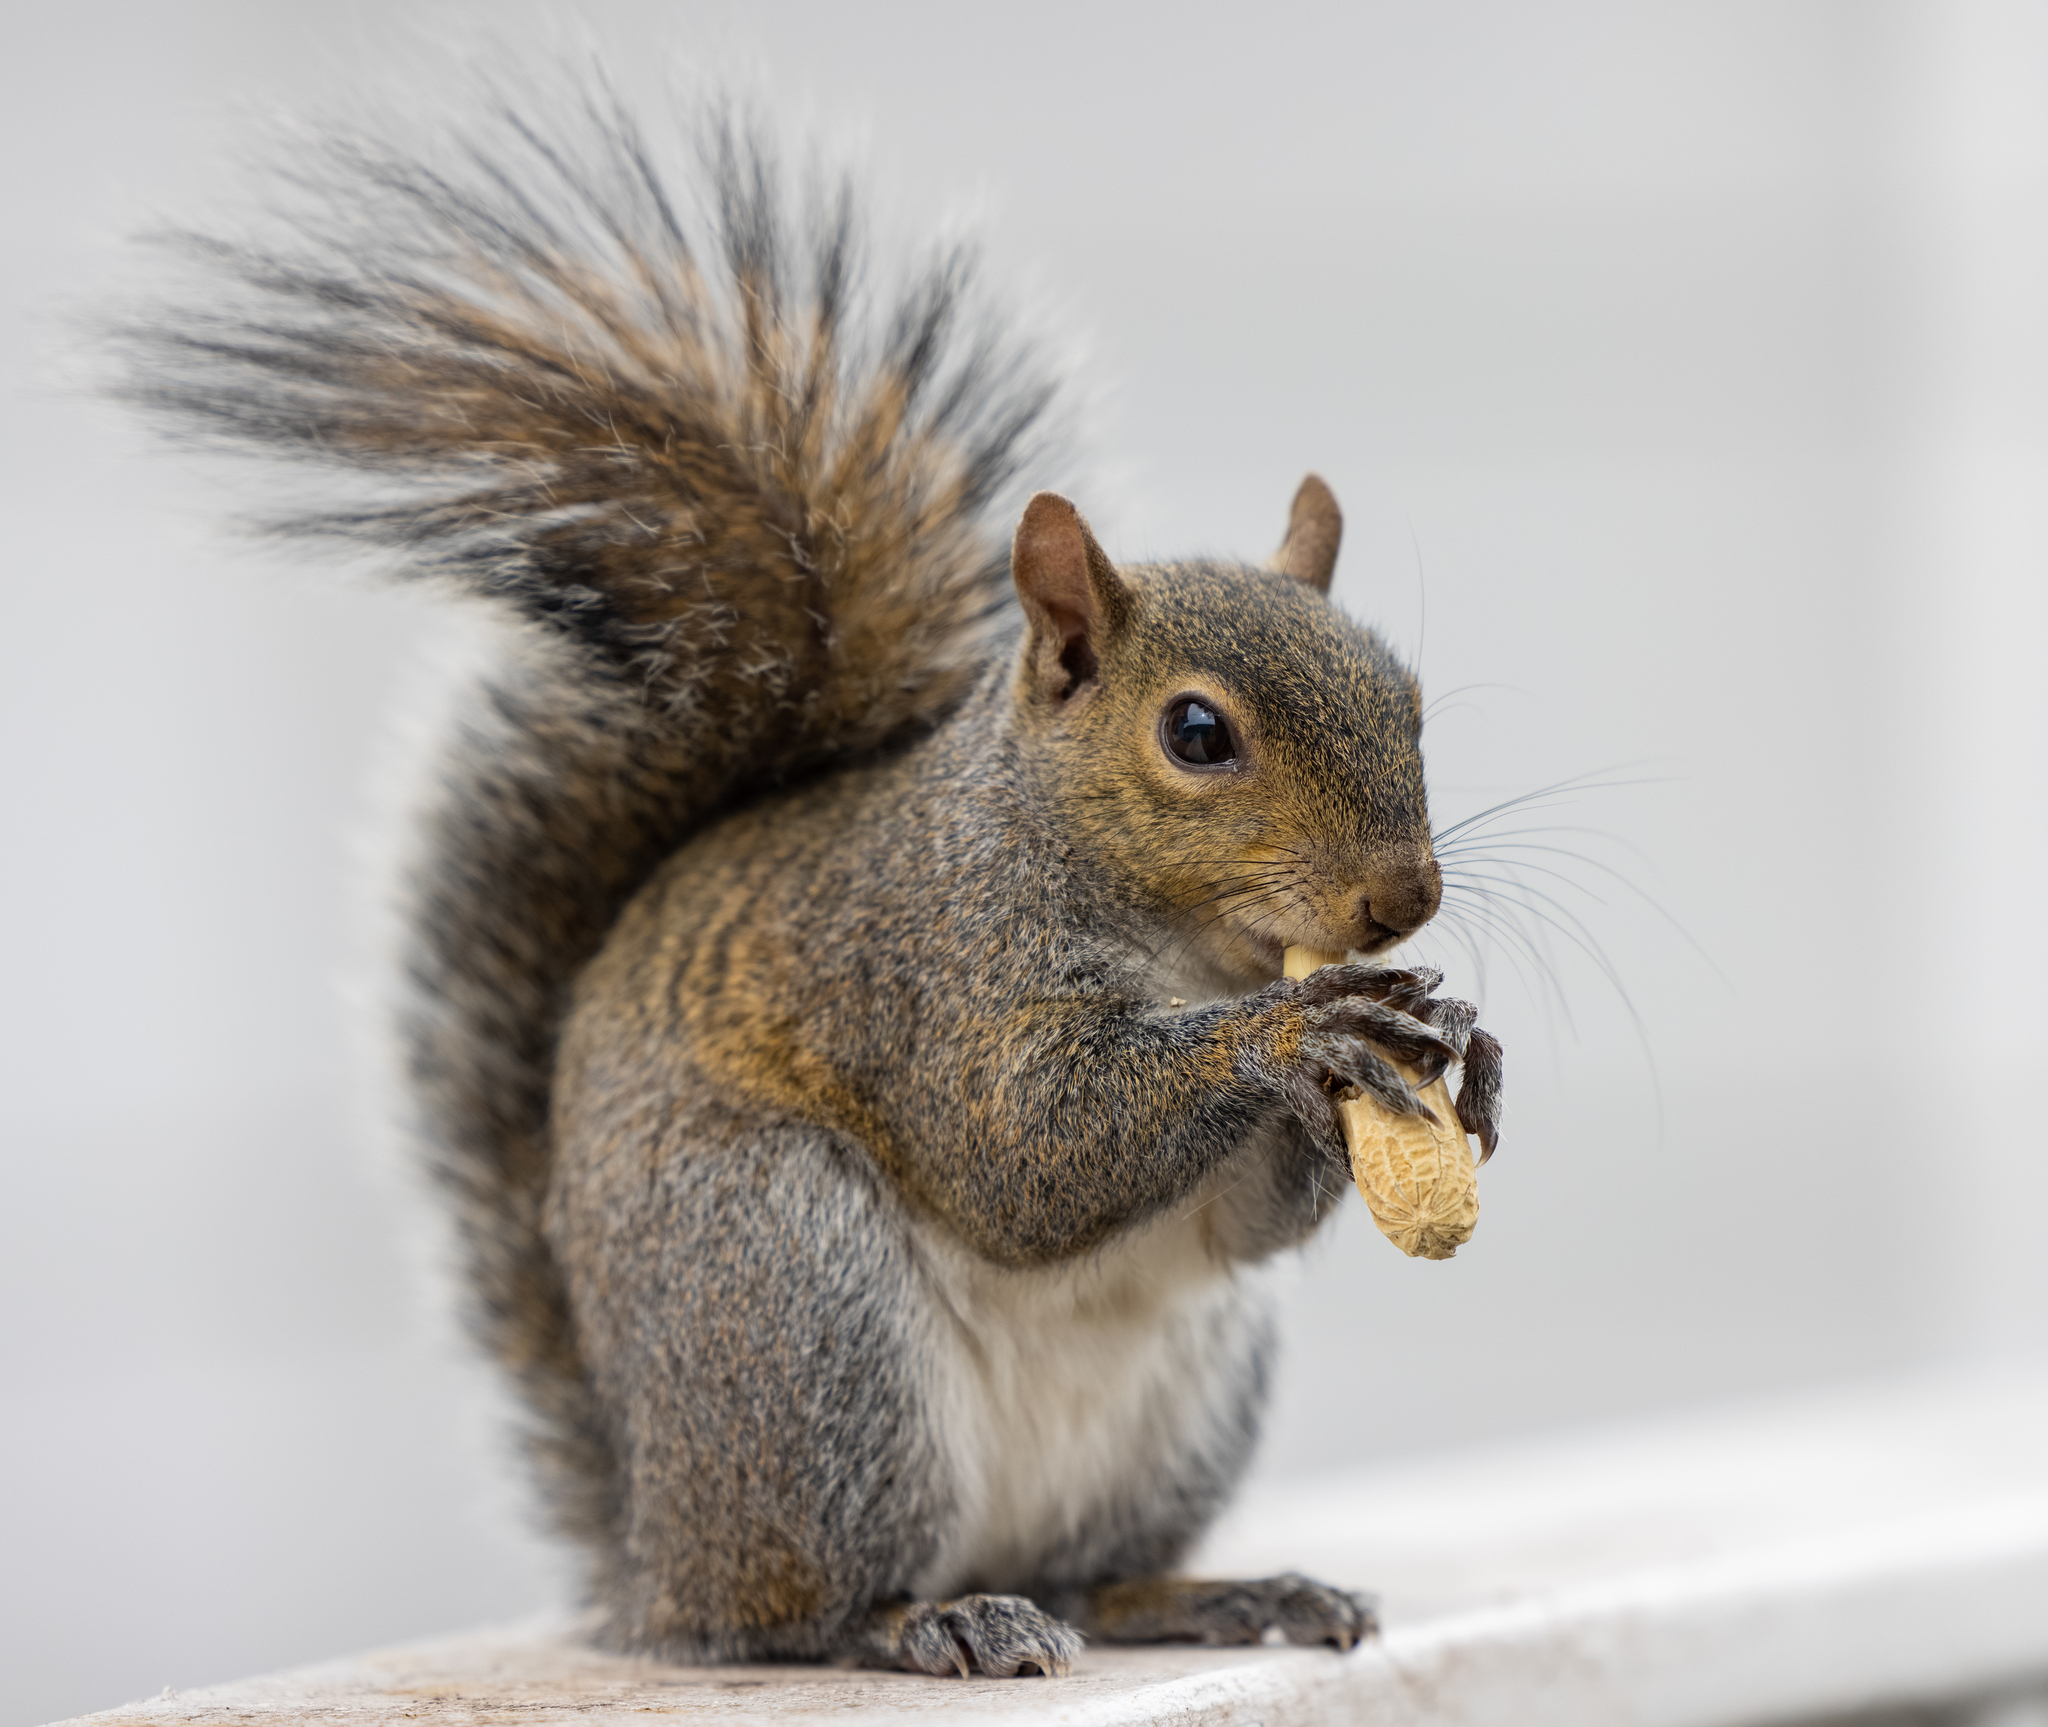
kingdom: Animalia
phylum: Chordata
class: Mammalia
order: Rodentia
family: Sciuridae
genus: Sciurus
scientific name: Sciurus carolinensis
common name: Eastern gray squirrel
